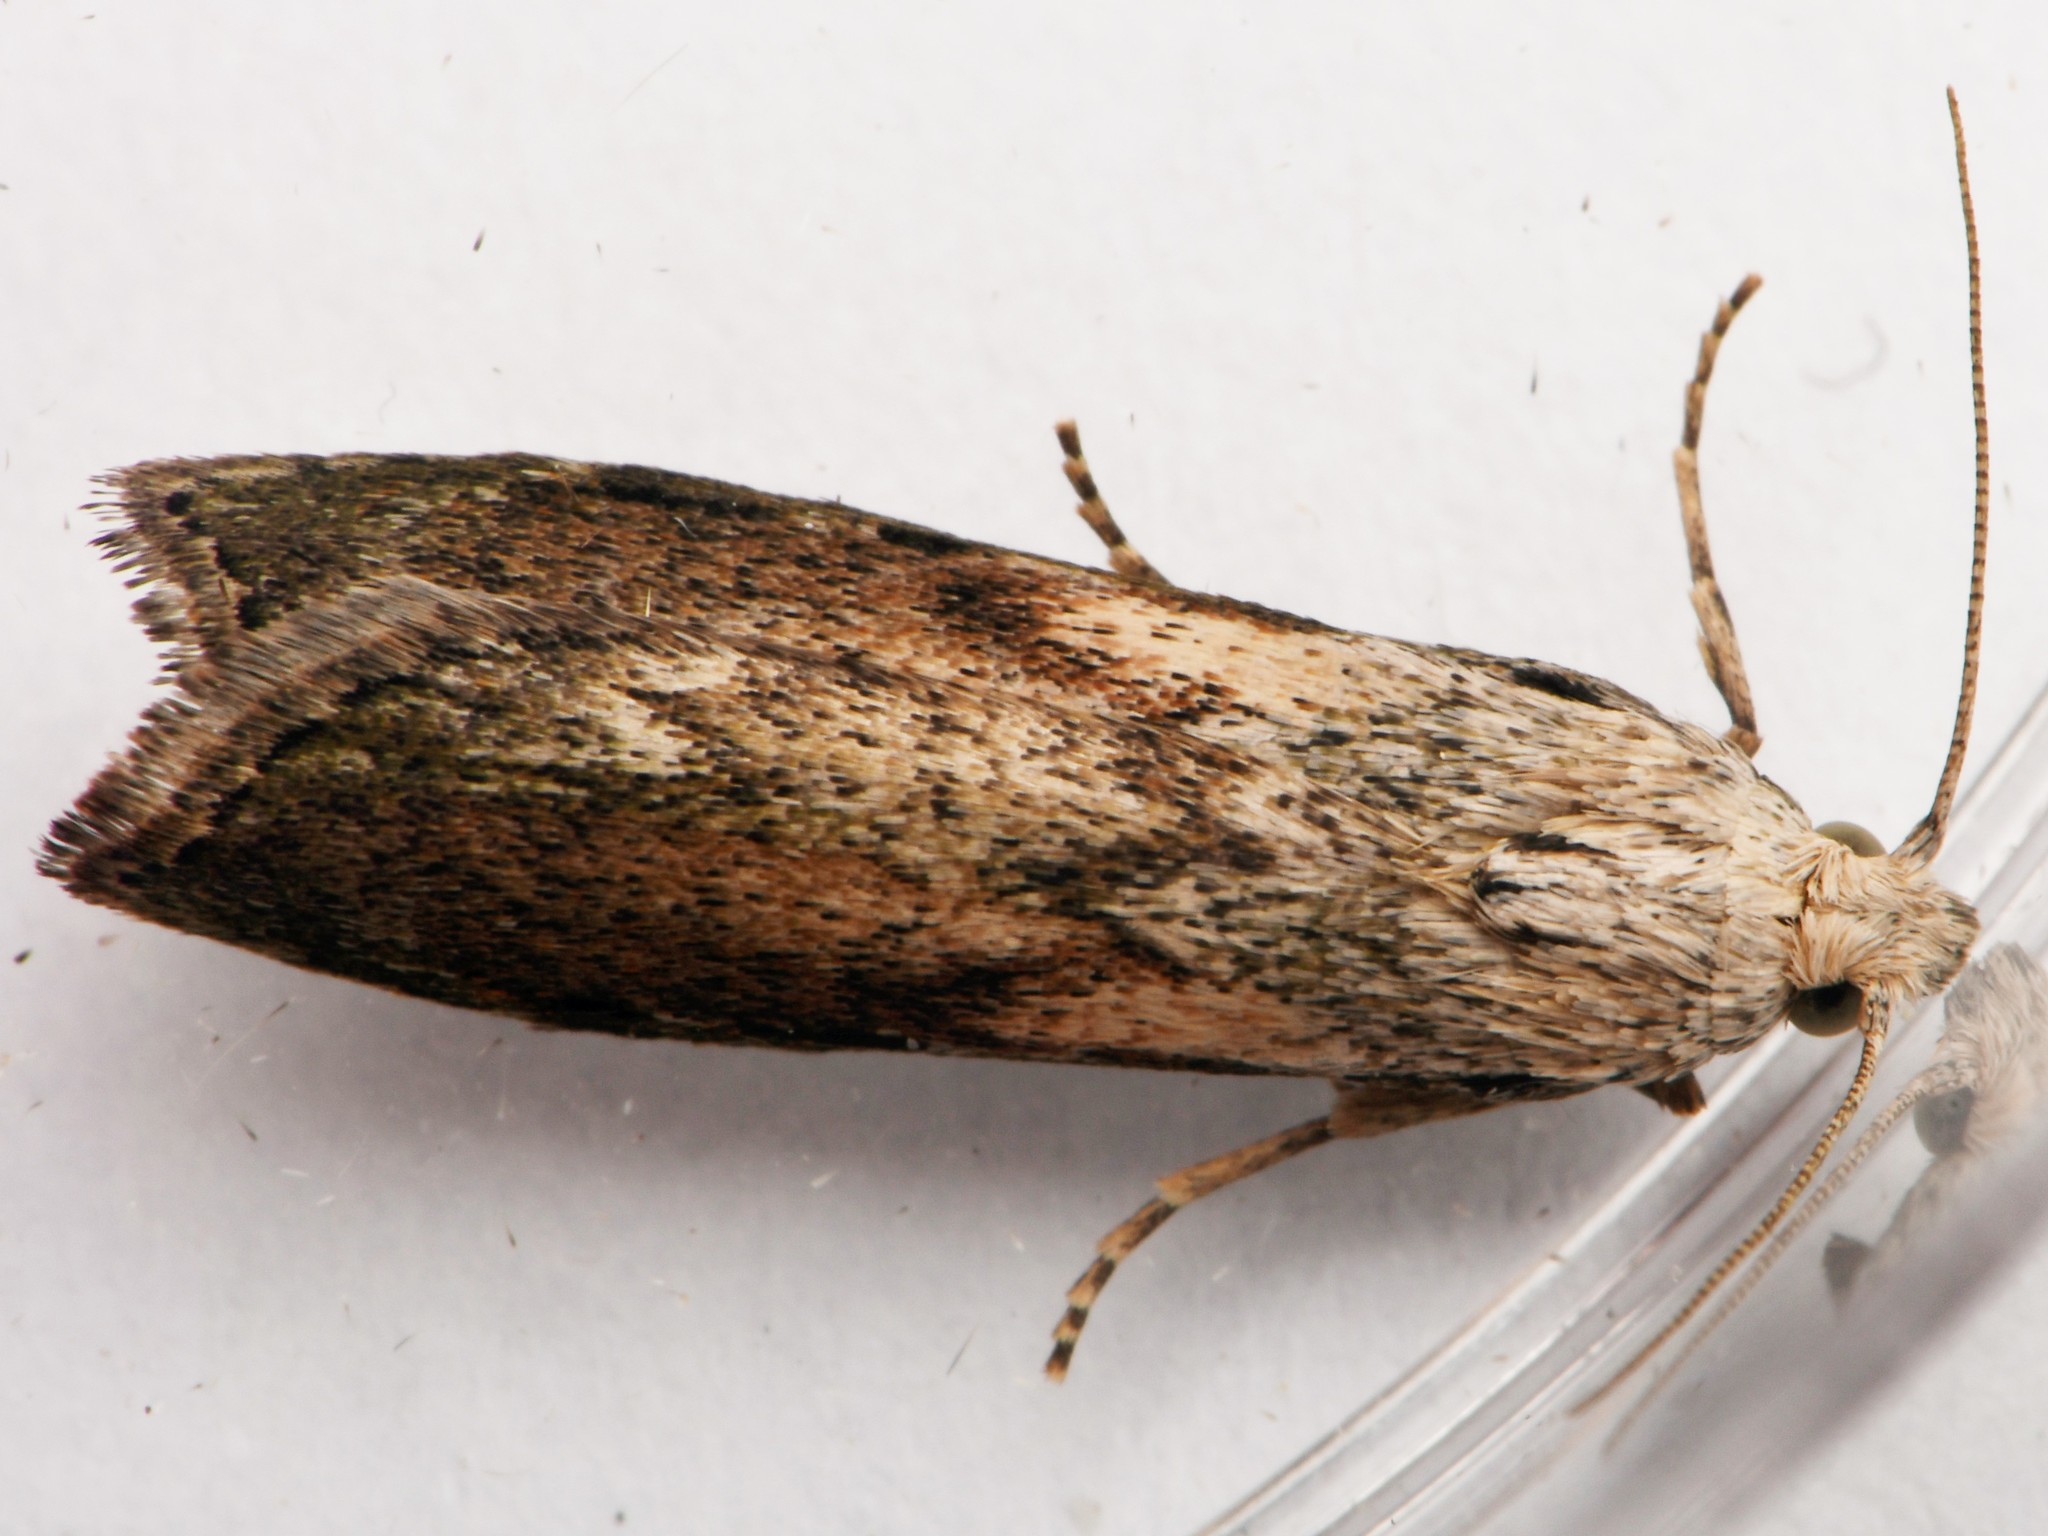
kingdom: Animalia
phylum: Arthropoda
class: Insecta
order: Lepidoptera
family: Pyralidae
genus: Aphomia
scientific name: Aphomia sociella
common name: Bee moth
